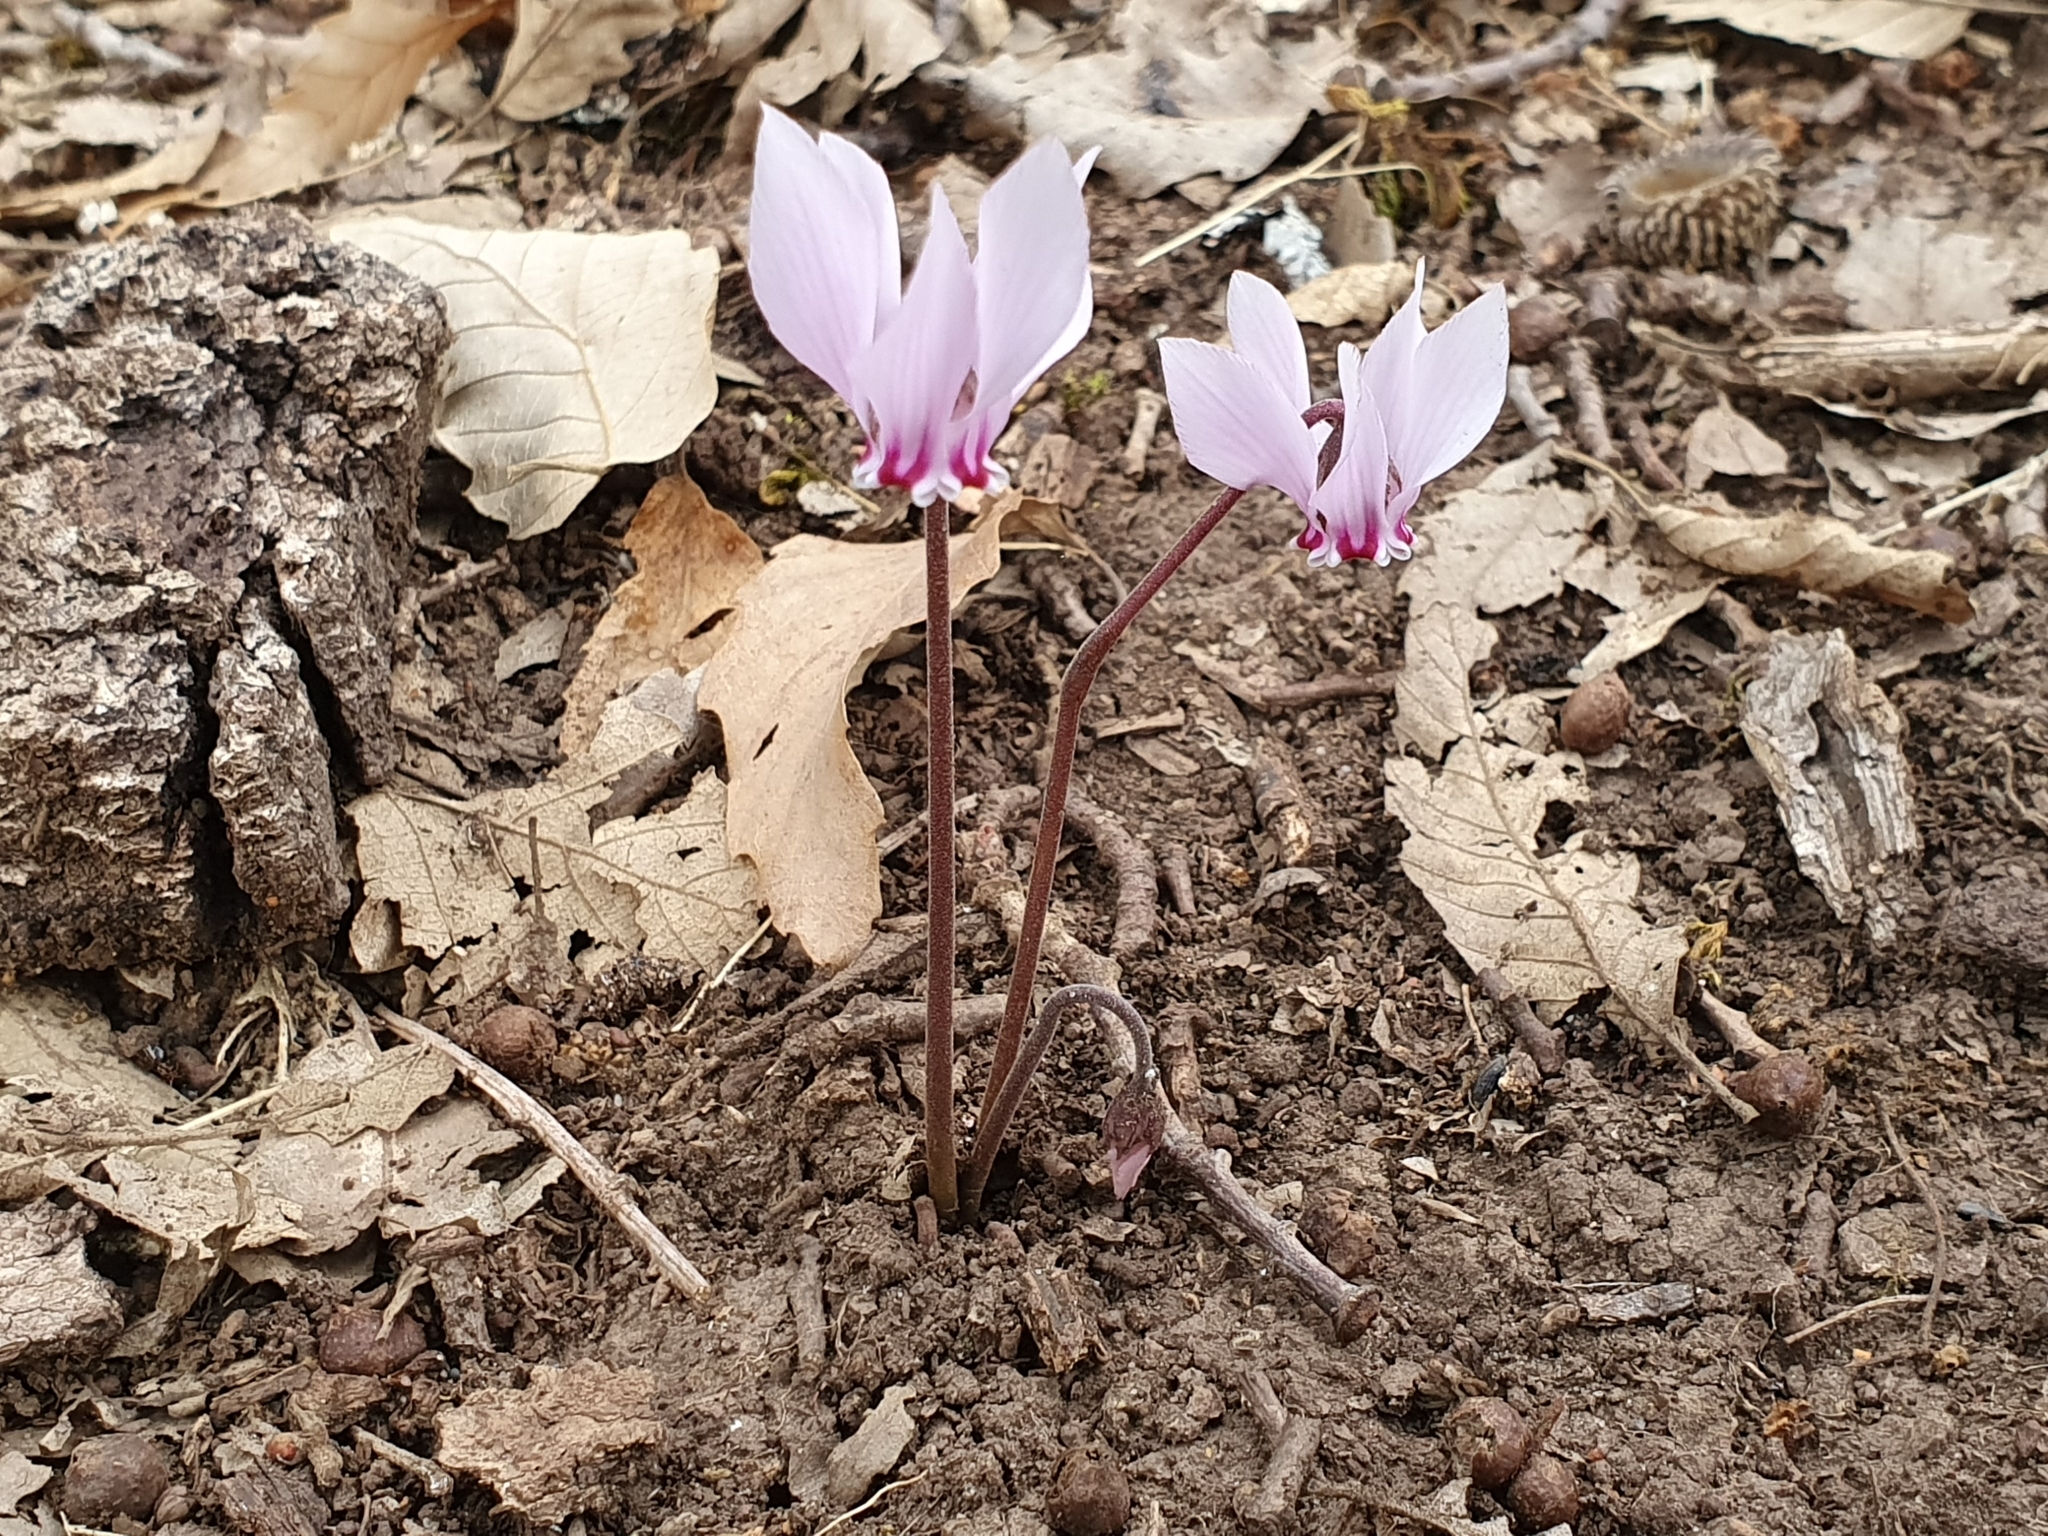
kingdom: Plantae
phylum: Tracheophyta
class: Magnoliopsida
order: Ericales
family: Primulaceae
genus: Cyclamen
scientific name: Cyclamen africanum
